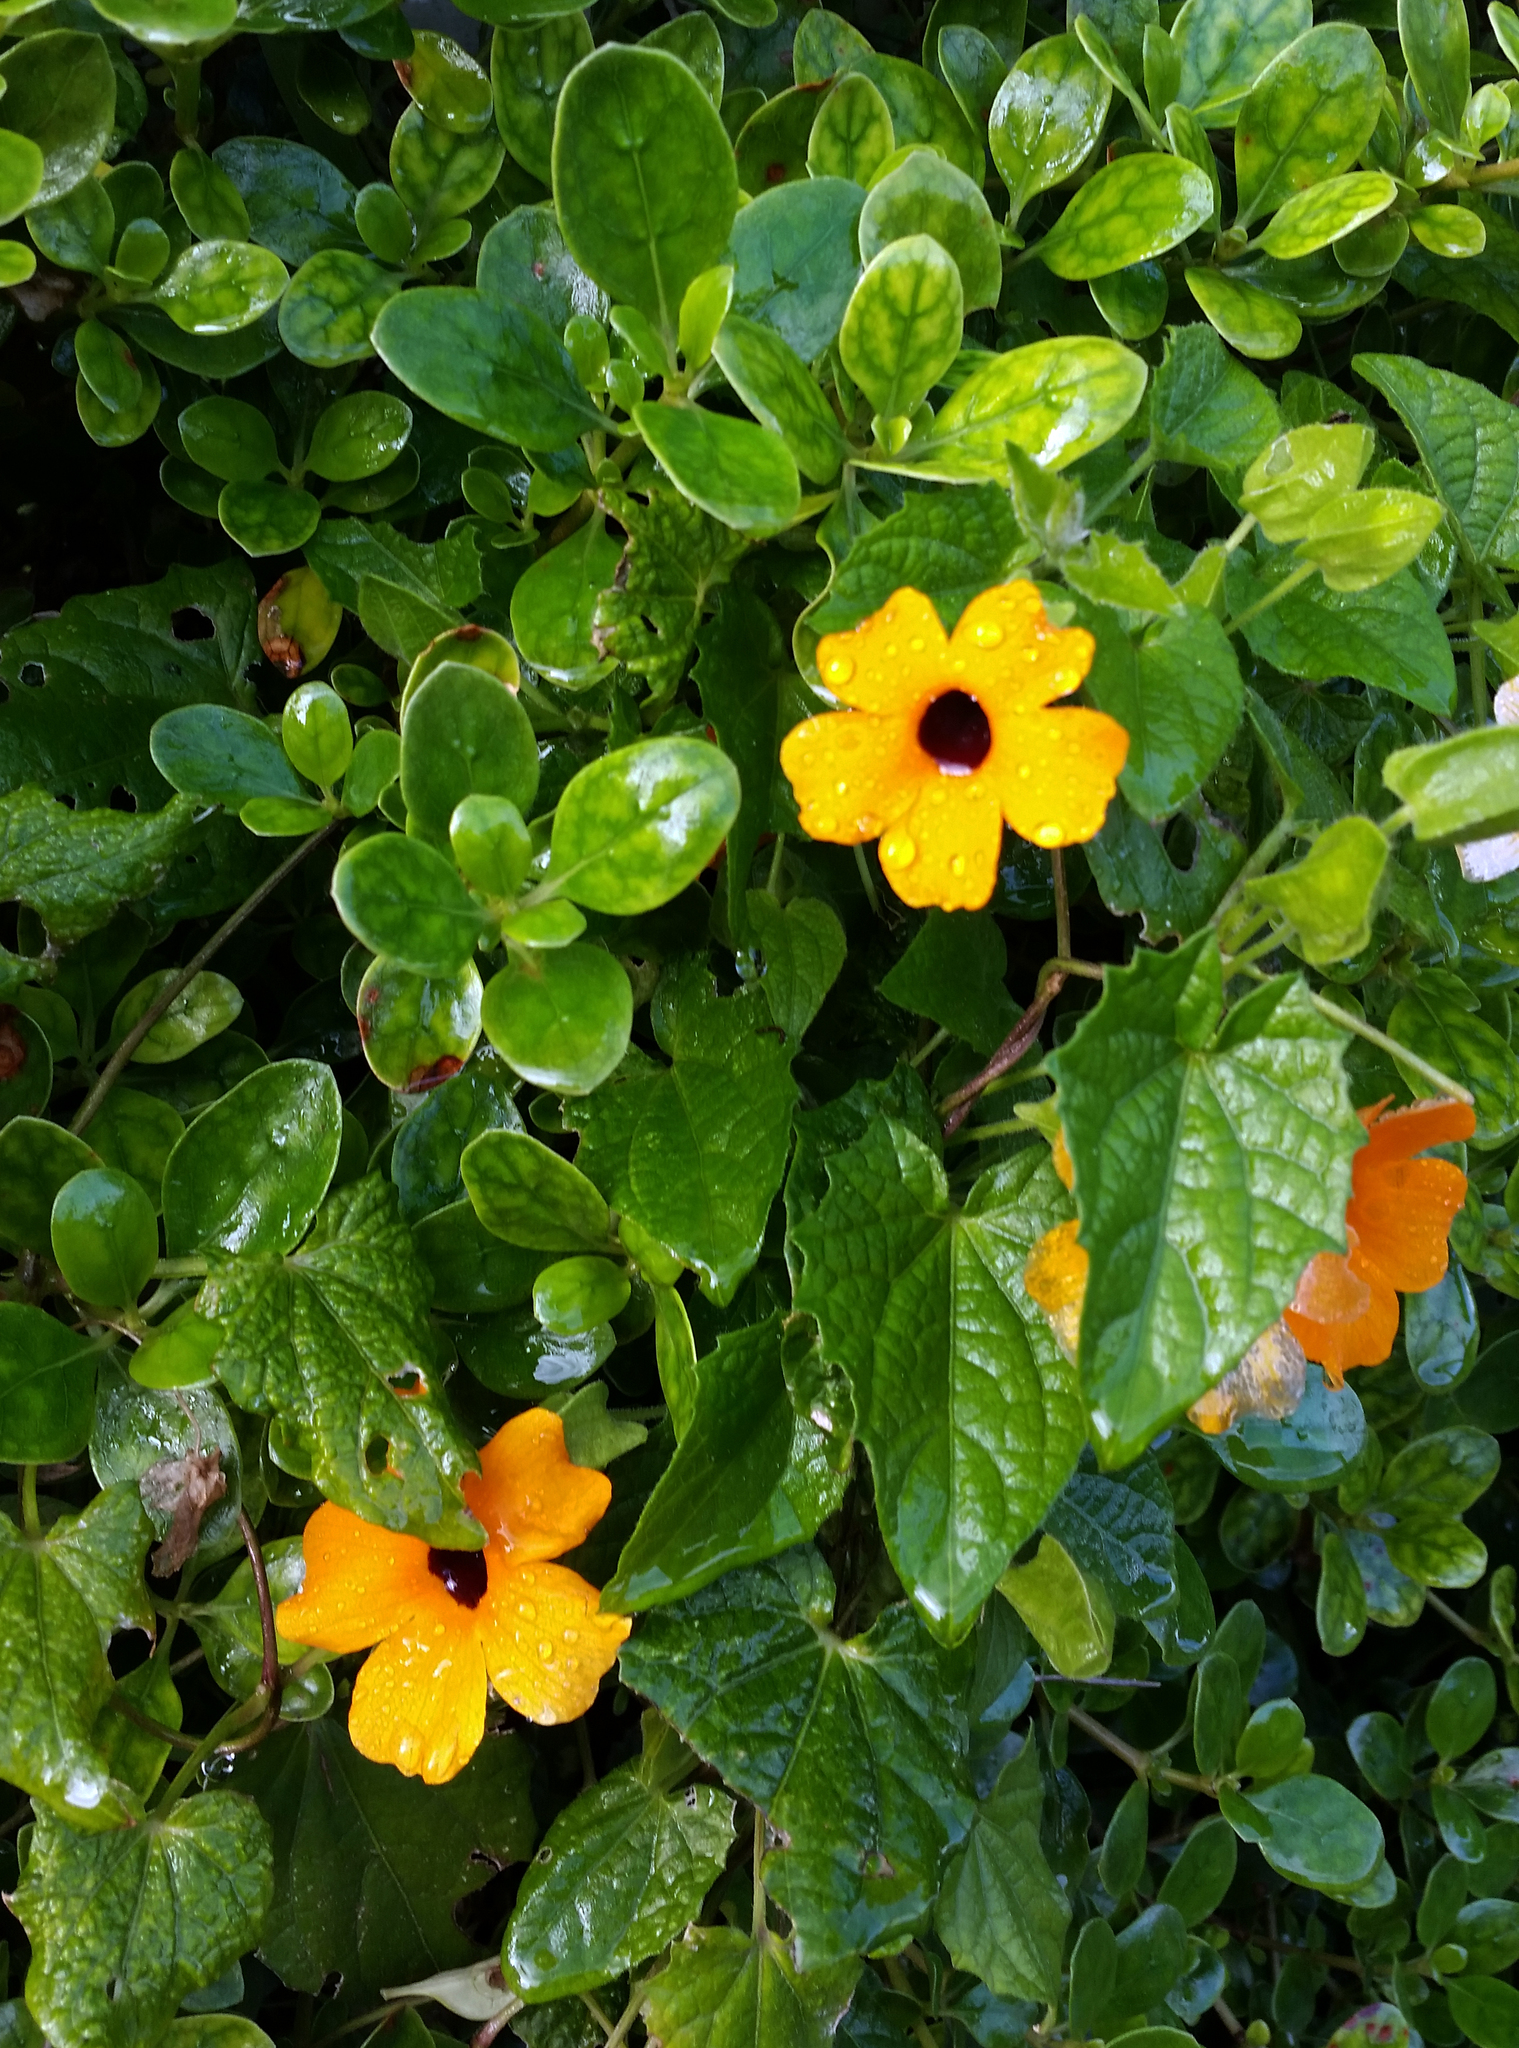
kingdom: Plantae
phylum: Tracheophyta
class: Magnoliopsida
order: Lamiales
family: Acanthaceae
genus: Thunbergia
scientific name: Thunbergia alata
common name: Blackeyed susan vine
